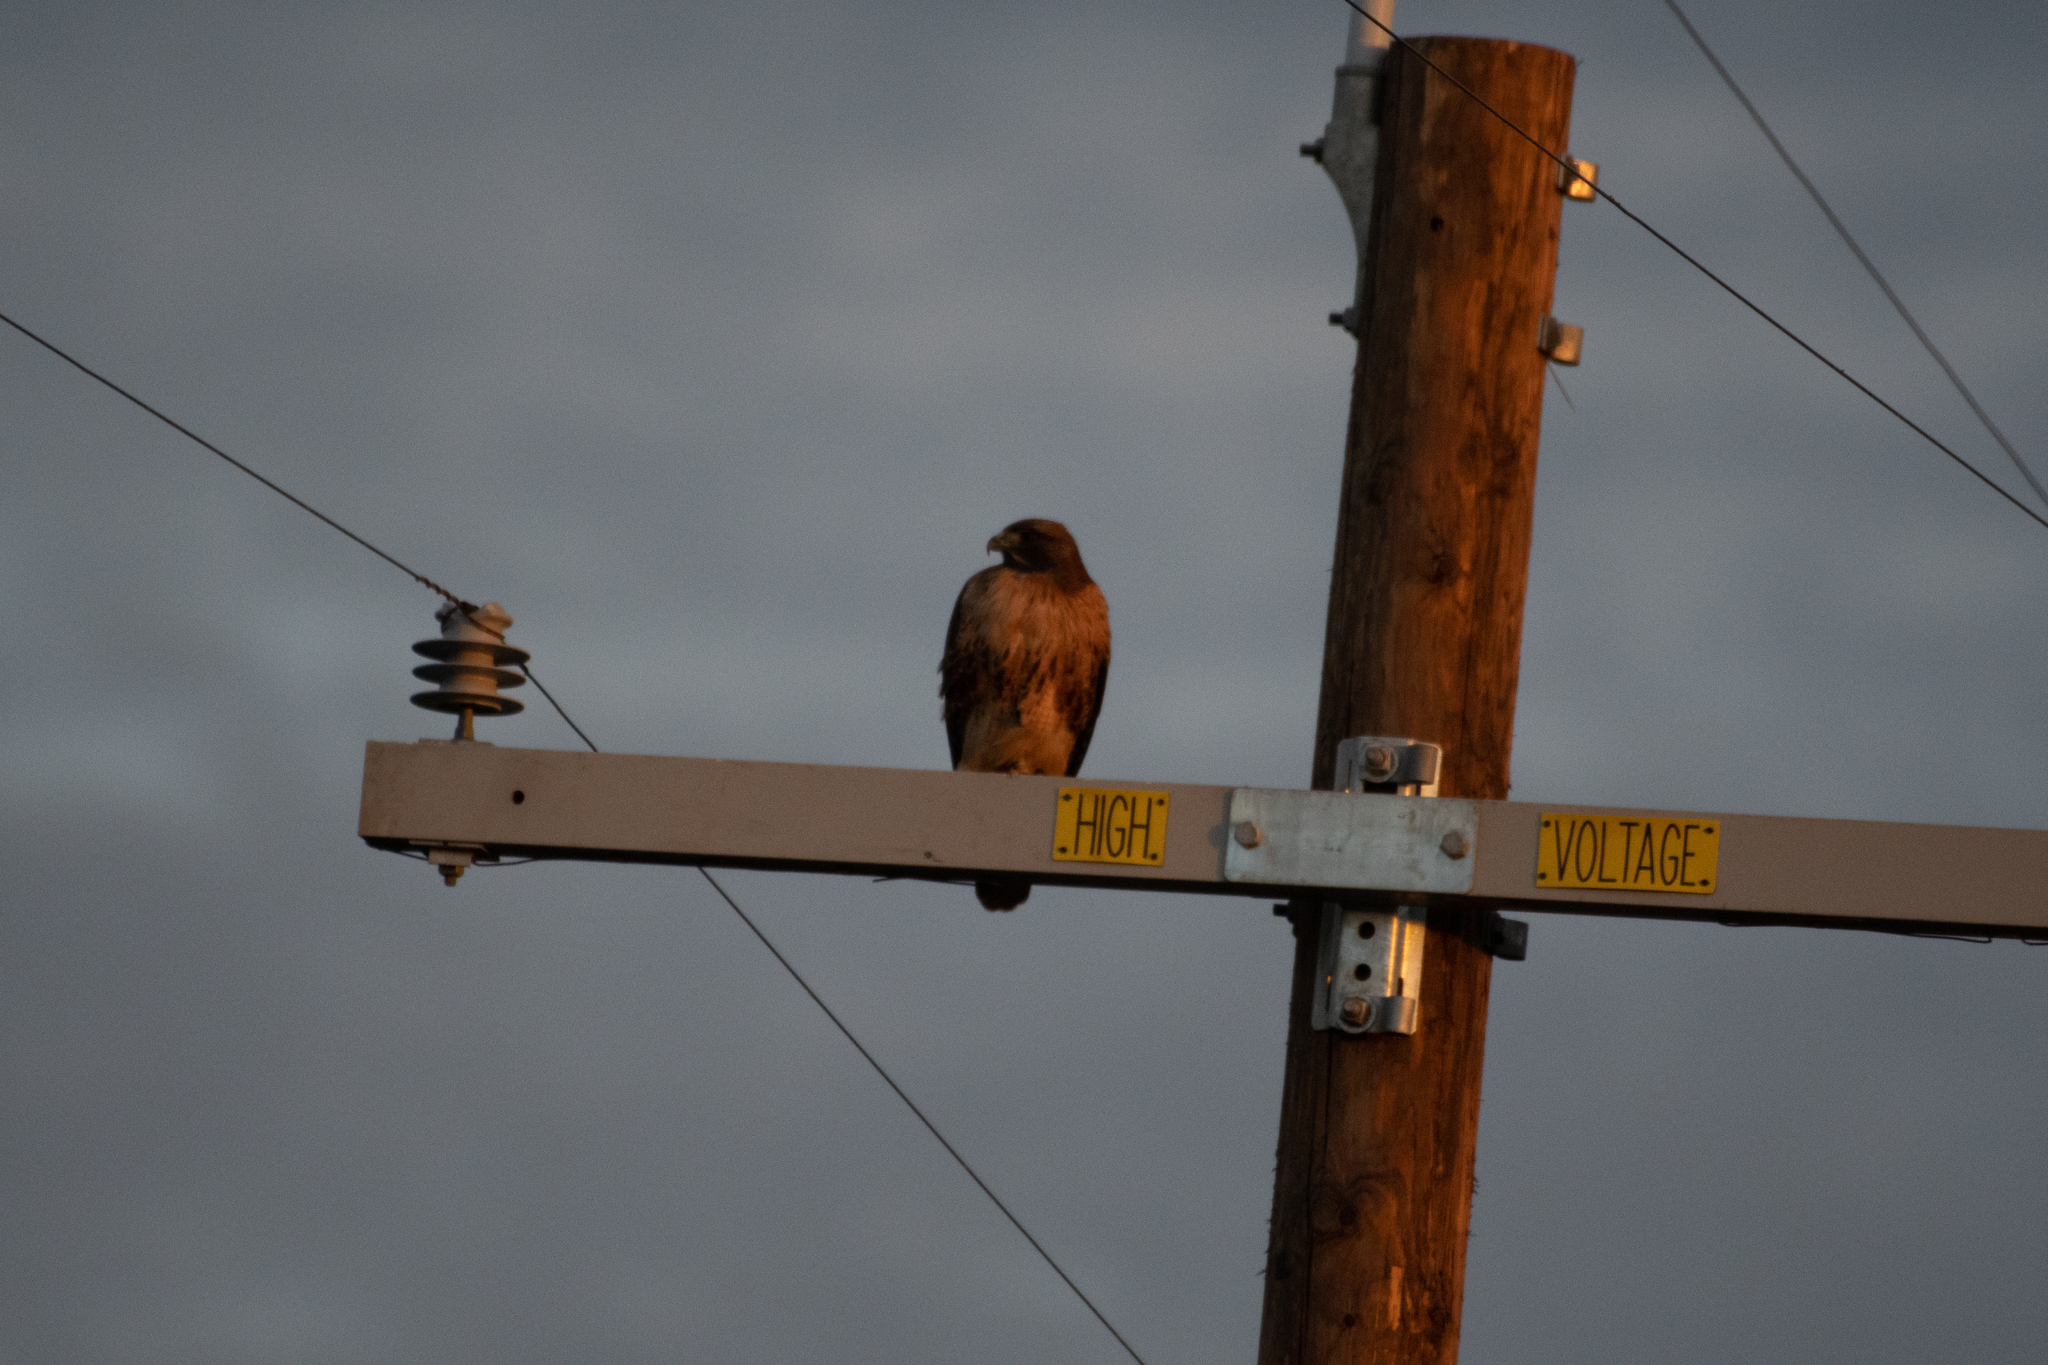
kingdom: Animalia
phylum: Chordata
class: Aves
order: Accipitriformes
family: Accipitridae
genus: Buteo
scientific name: Buteo jamaicensis
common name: Red-tailed hawk
